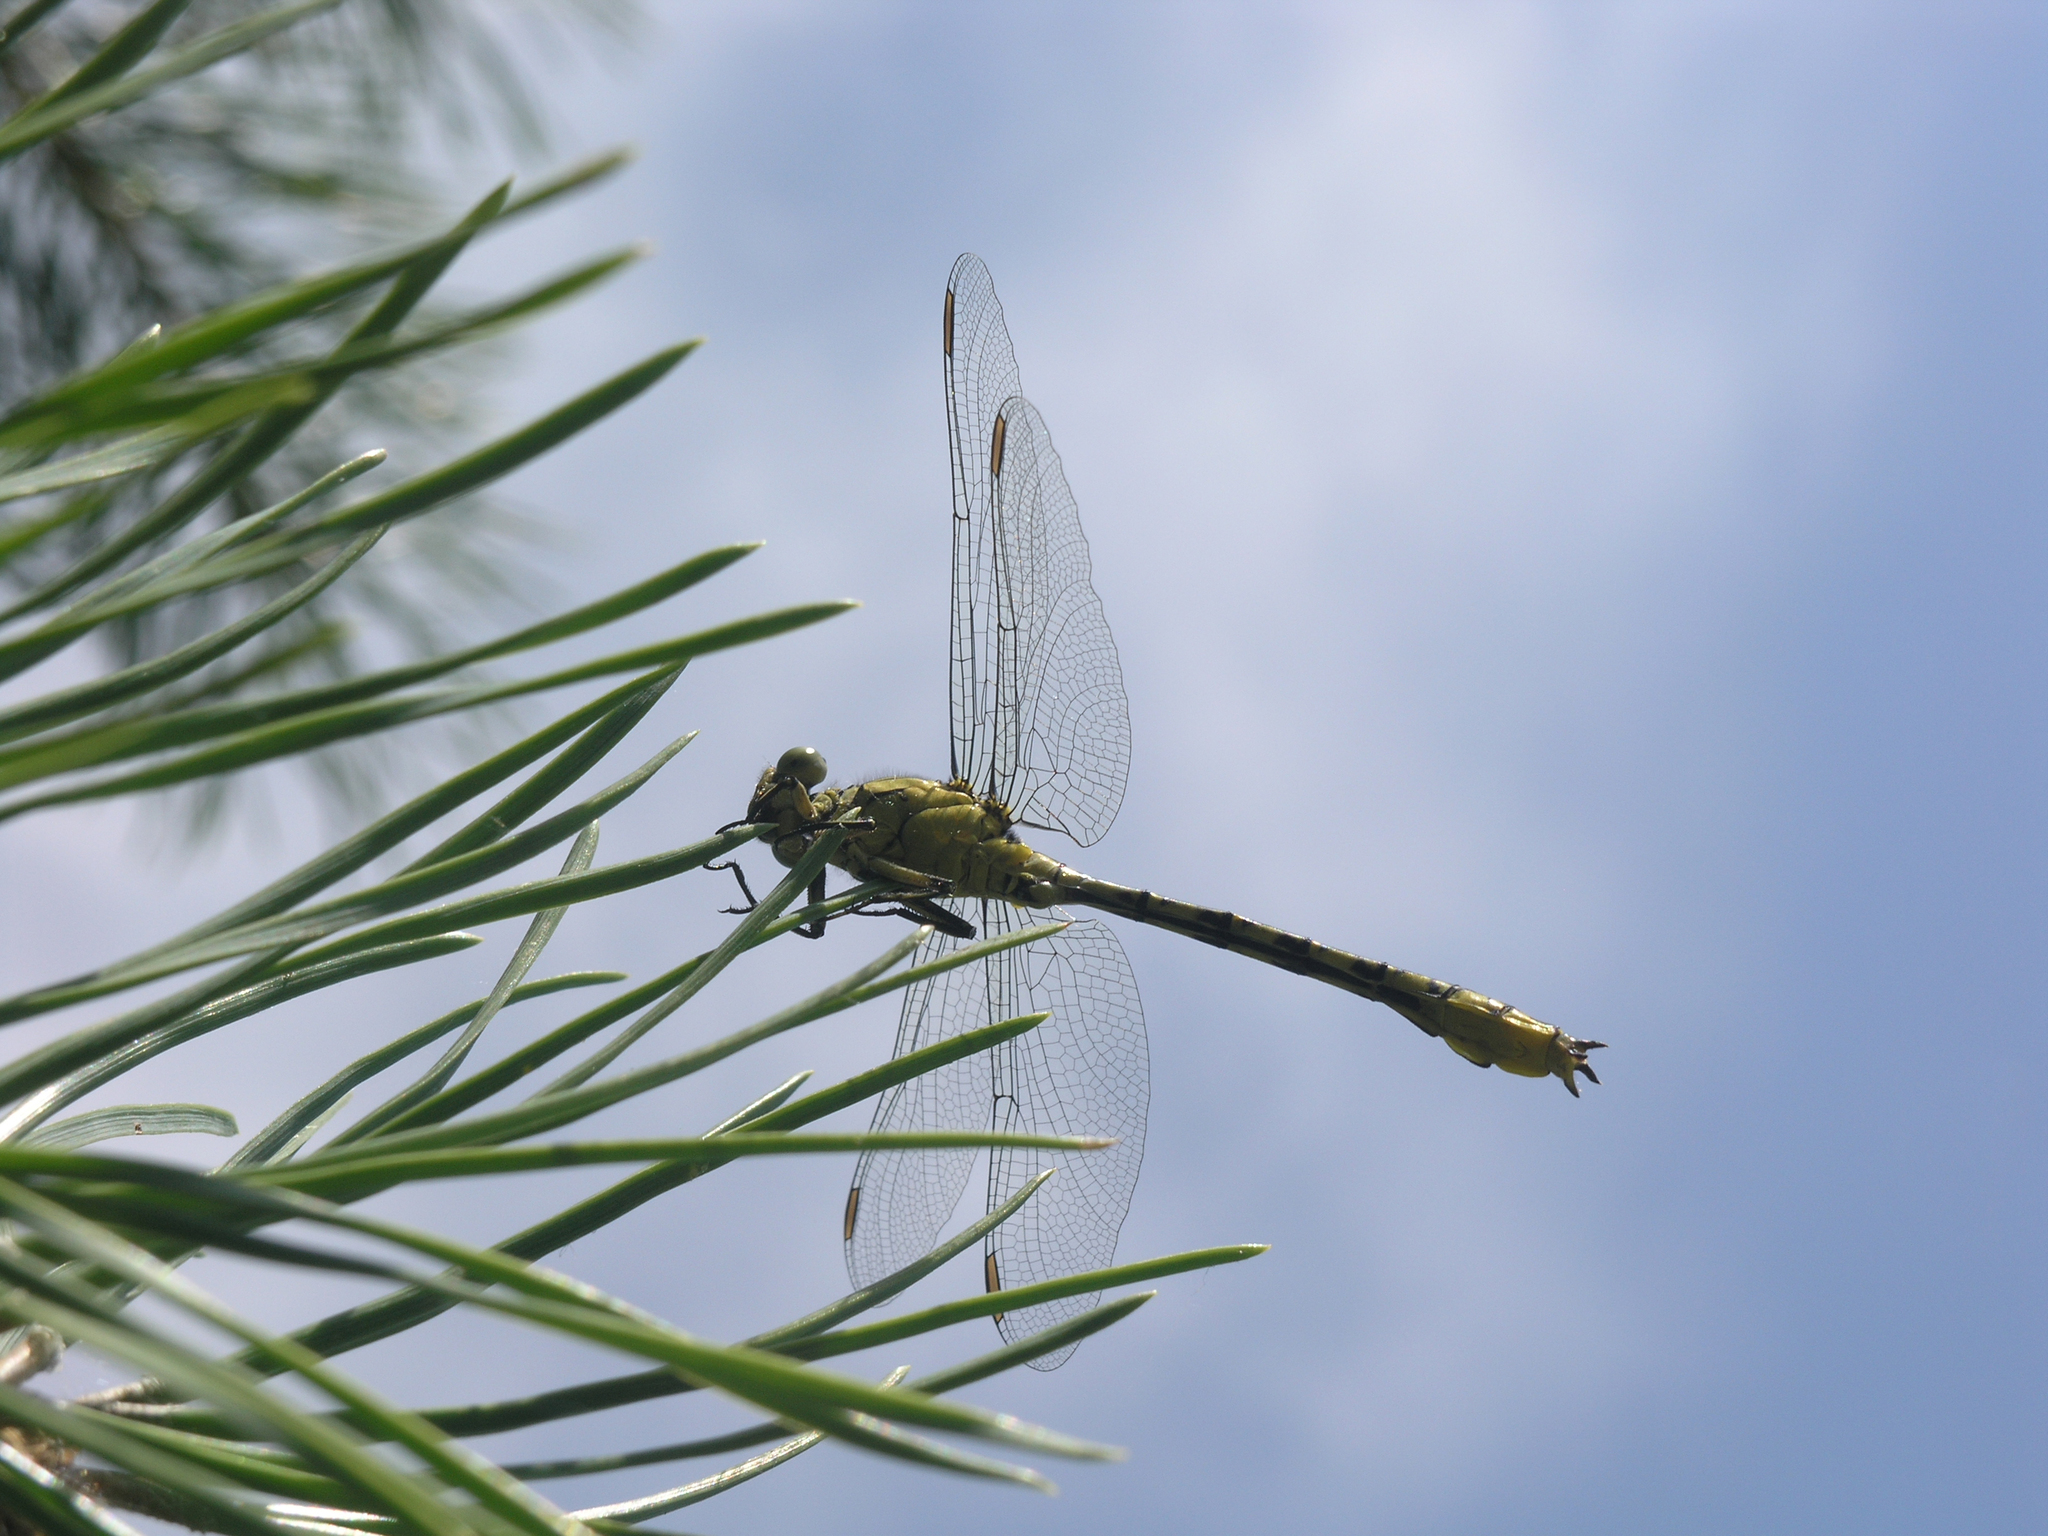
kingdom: Animalia
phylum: Arthropoda
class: Insecta
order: Odonata
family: Gomphidae
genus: Stylurus
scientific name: Stylurus flavipes
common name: River clubtail
